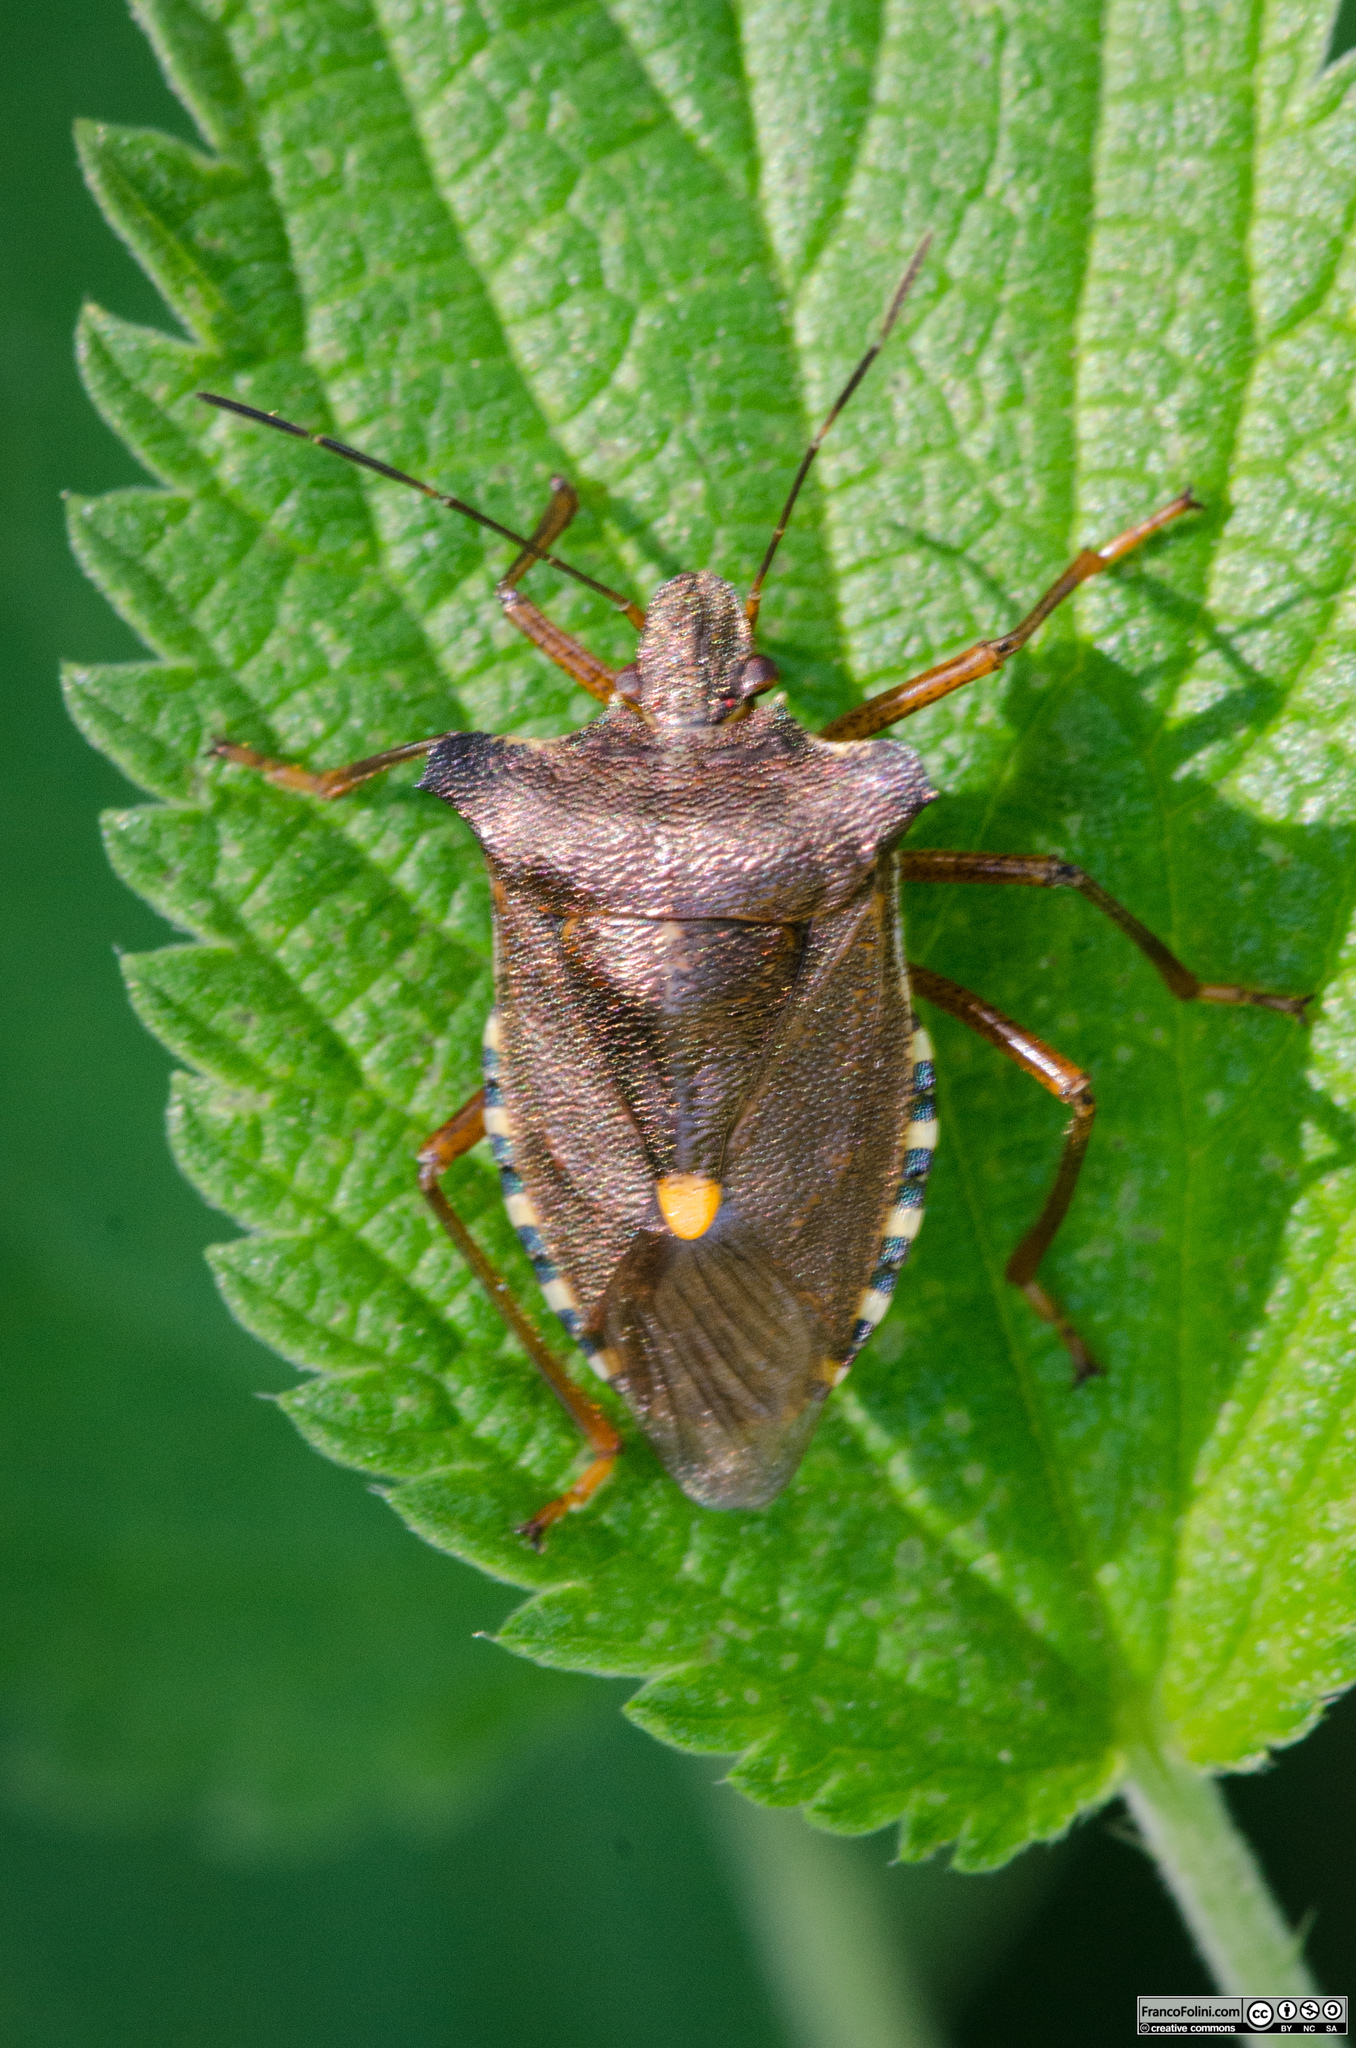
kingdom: Animalia
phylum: Arthropoda
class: Insecta
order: Hemiptera
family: Pentatomidae
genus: Pentatoma
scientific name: Pentatoma rufipes
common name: Forest bug
